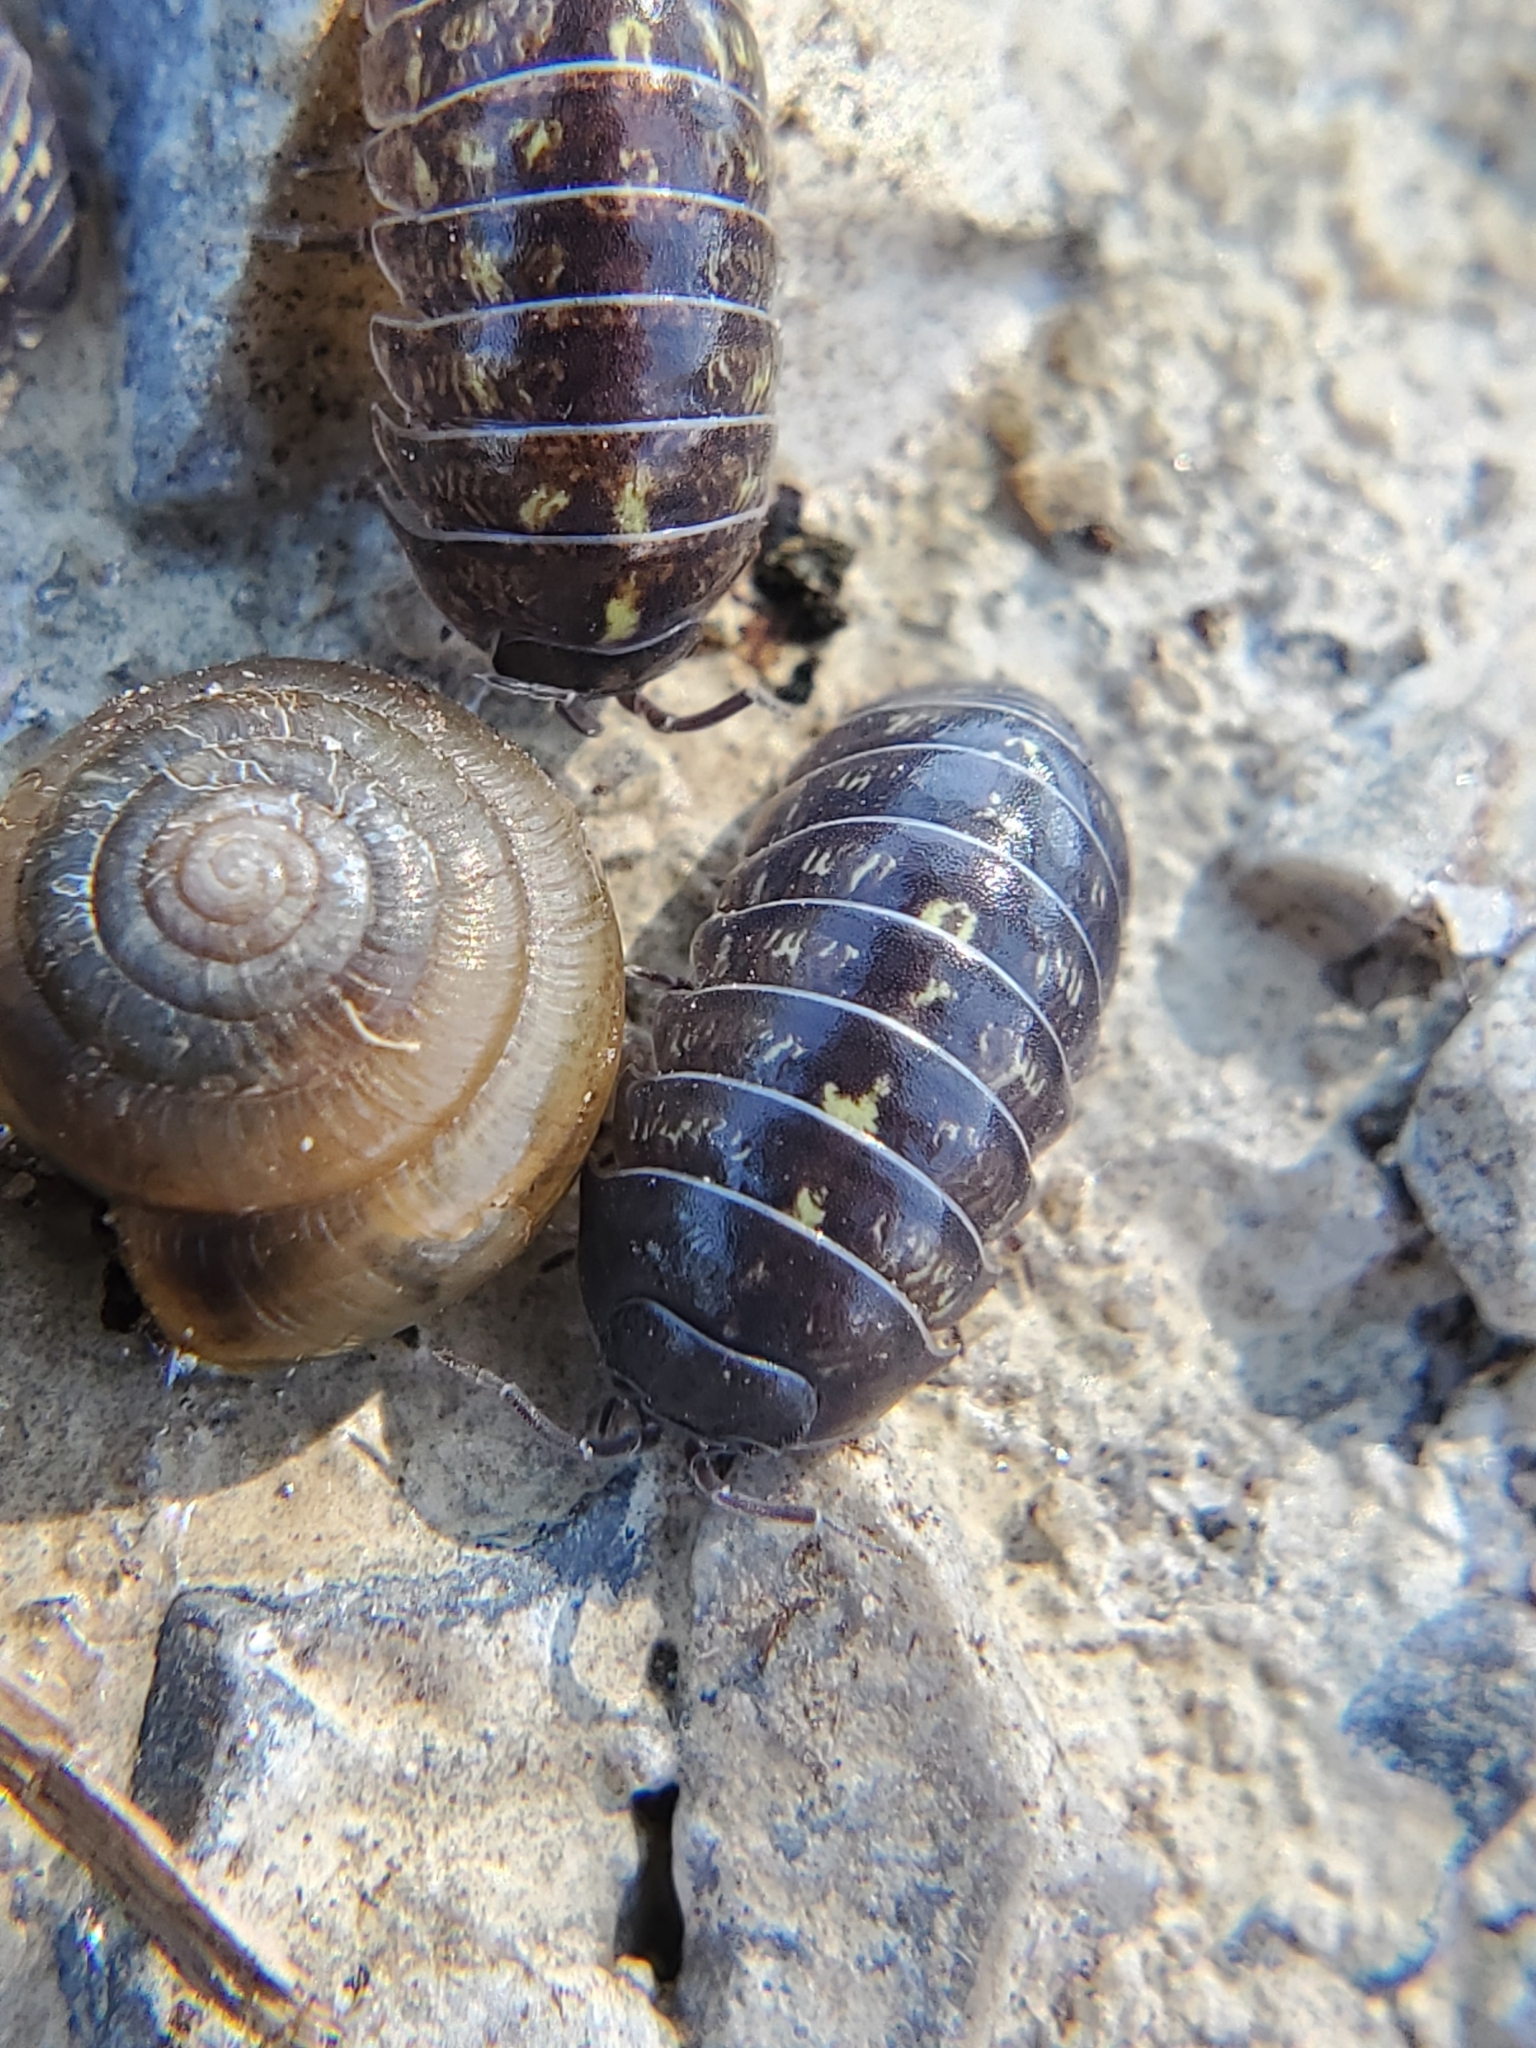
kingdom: Animalia
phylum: Arthropoda
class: Malacostraca
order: Isopoda
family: Armadillidiidae
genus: Armadillidium
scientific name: Armadillidium vulgare
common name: Common pill woodlouse
